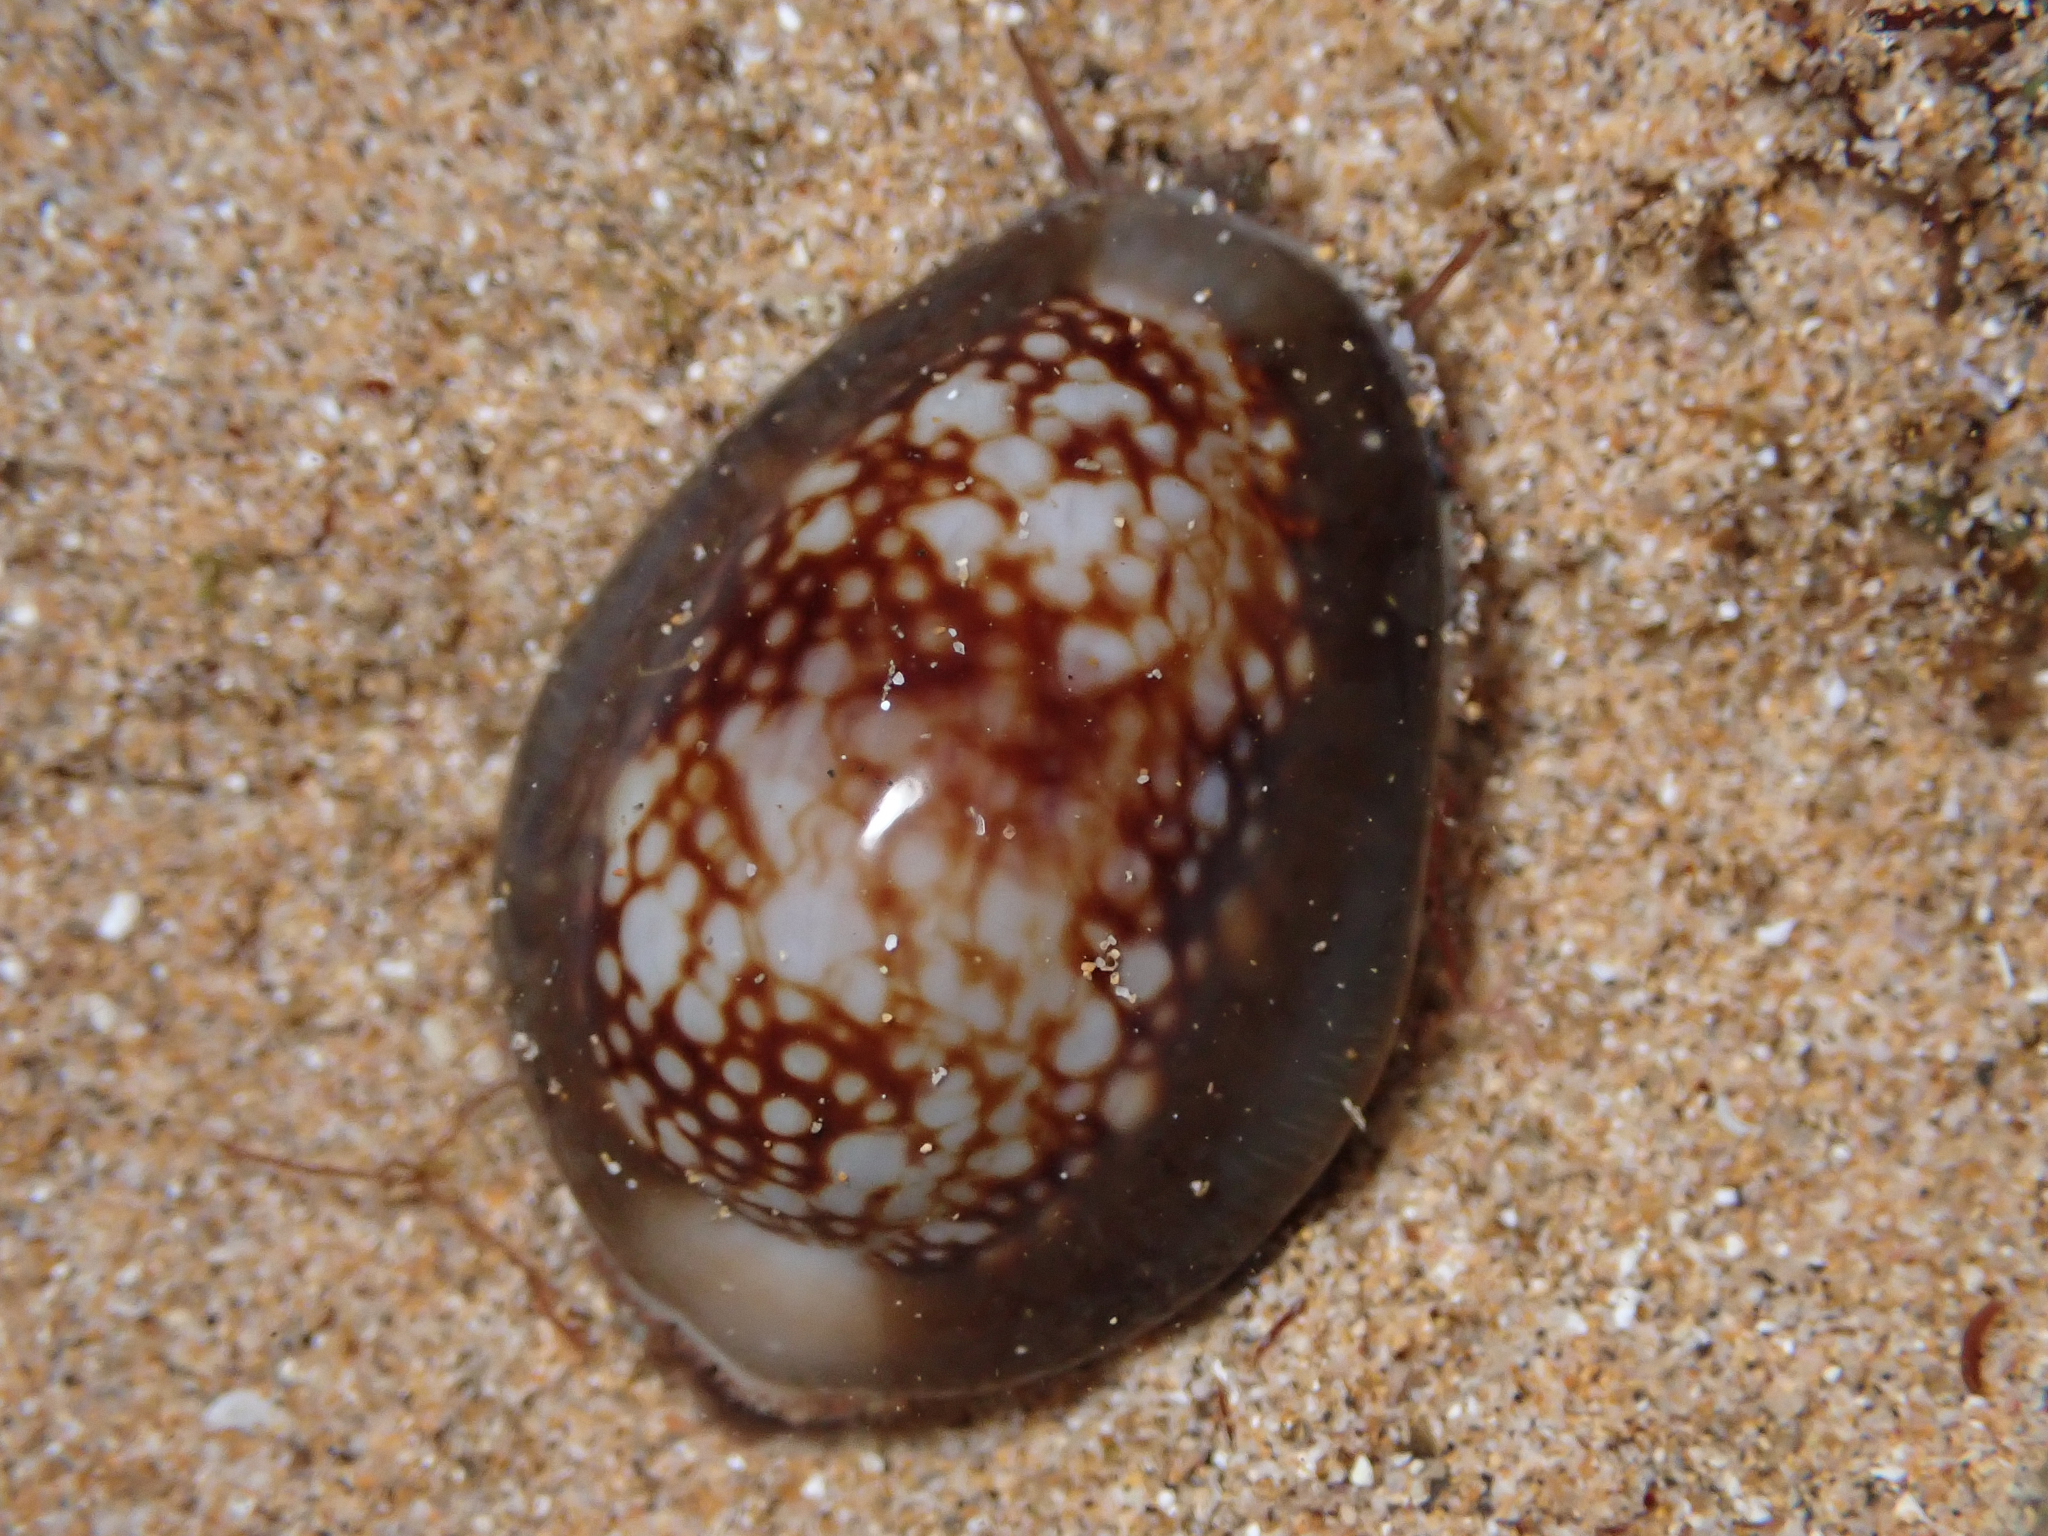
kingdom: Animalia
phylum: Mollusca
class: Gastropoda
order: Littorinimorpha
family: Cypraeidae
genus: Monetaria
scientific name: Monetaria caputophidii
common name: Snake's head cowry
